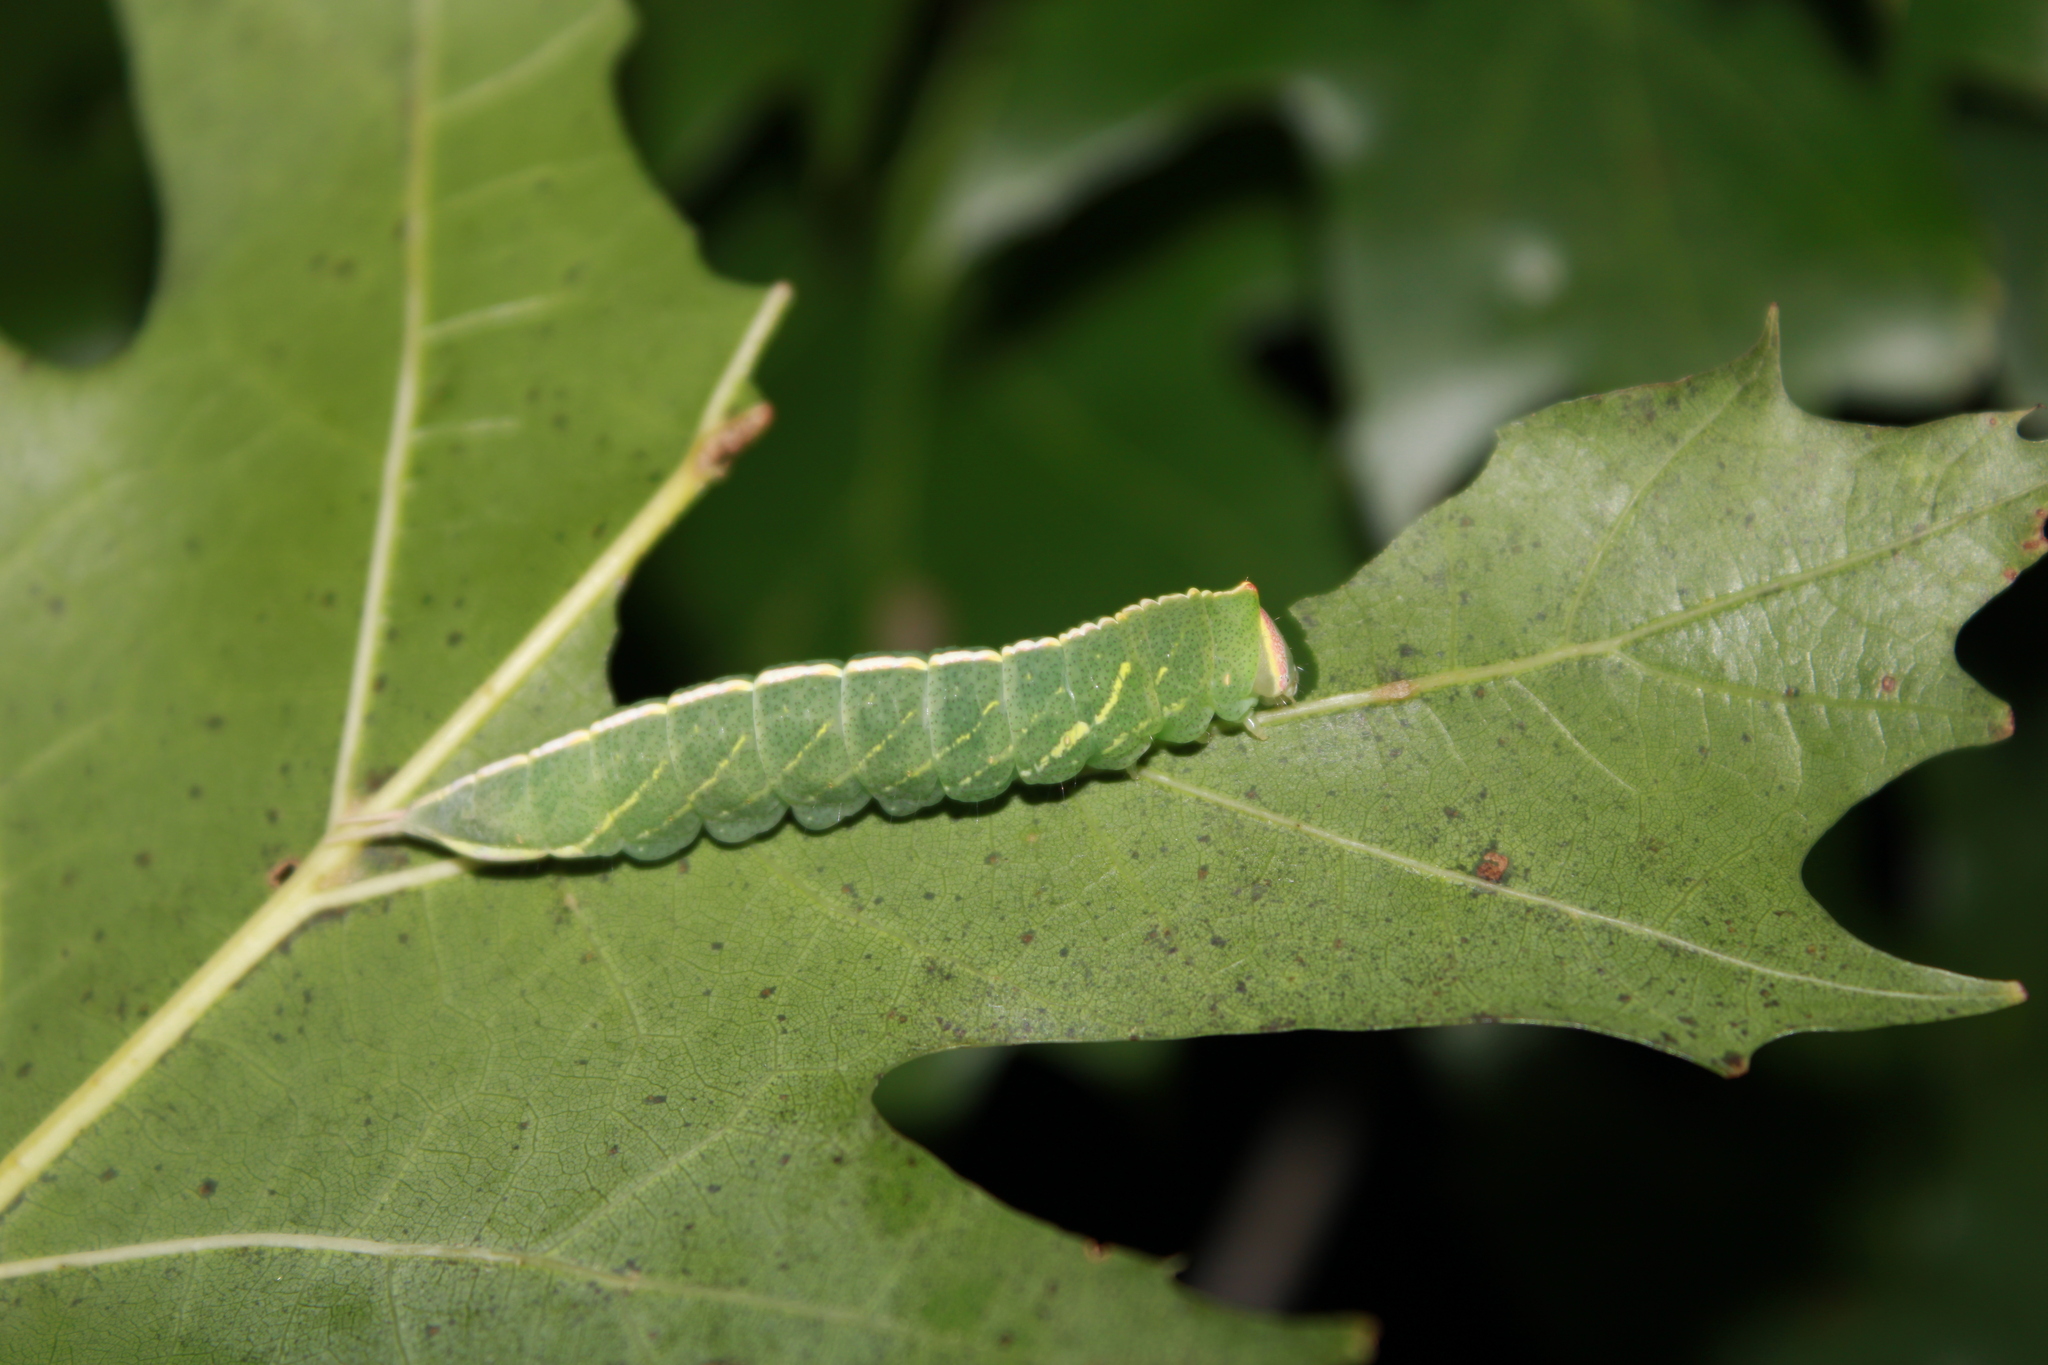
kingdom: Animalia
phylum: Arthropoda
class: Insecta
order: Lepidoptera
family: Notodontidae
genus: Macrurocampa
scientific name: Macrurocampa marthesia
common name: Mottled prominent
